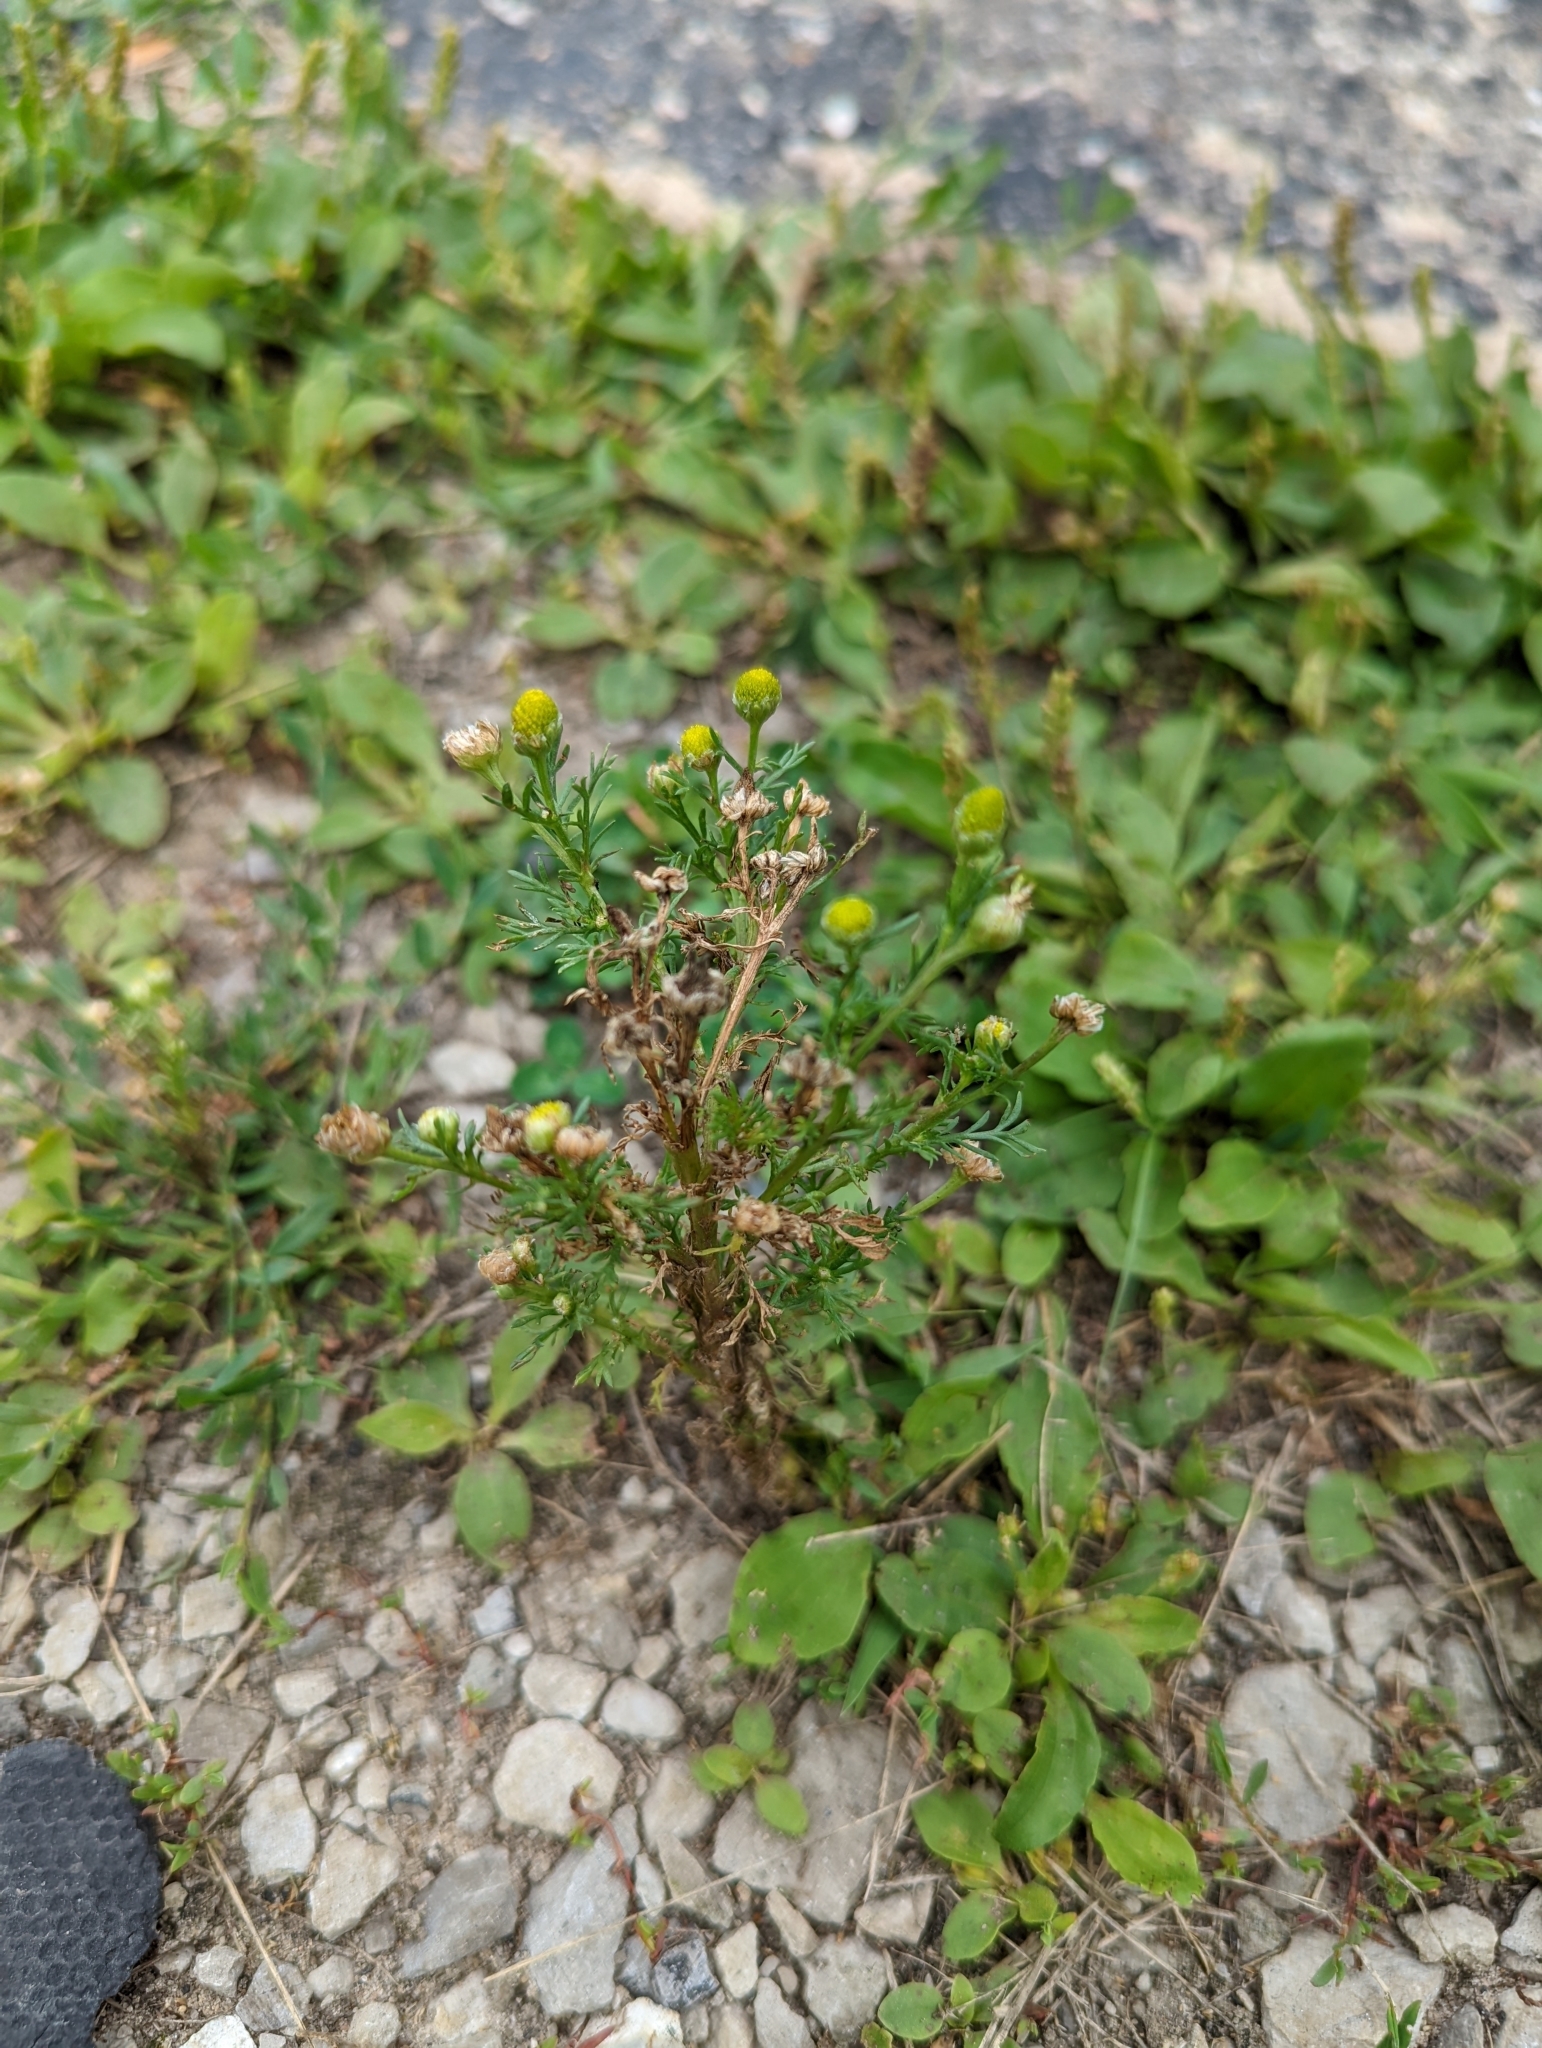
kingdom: Plantae
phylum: Tracheophyta
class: Magnoliopsida
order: Asterales
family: Asteraceae
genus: Matricaria
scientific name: Matricaria discoidea
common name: Disc mayweed
